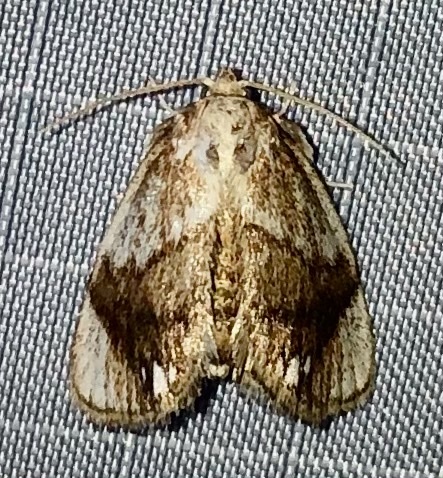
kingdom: Animalia
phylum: Arthropoda
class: Insecta
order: Lepidoptera
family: Limacodidae
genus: Packardia
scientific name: Packardia geminata
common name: Jeweled tailed slug moth
